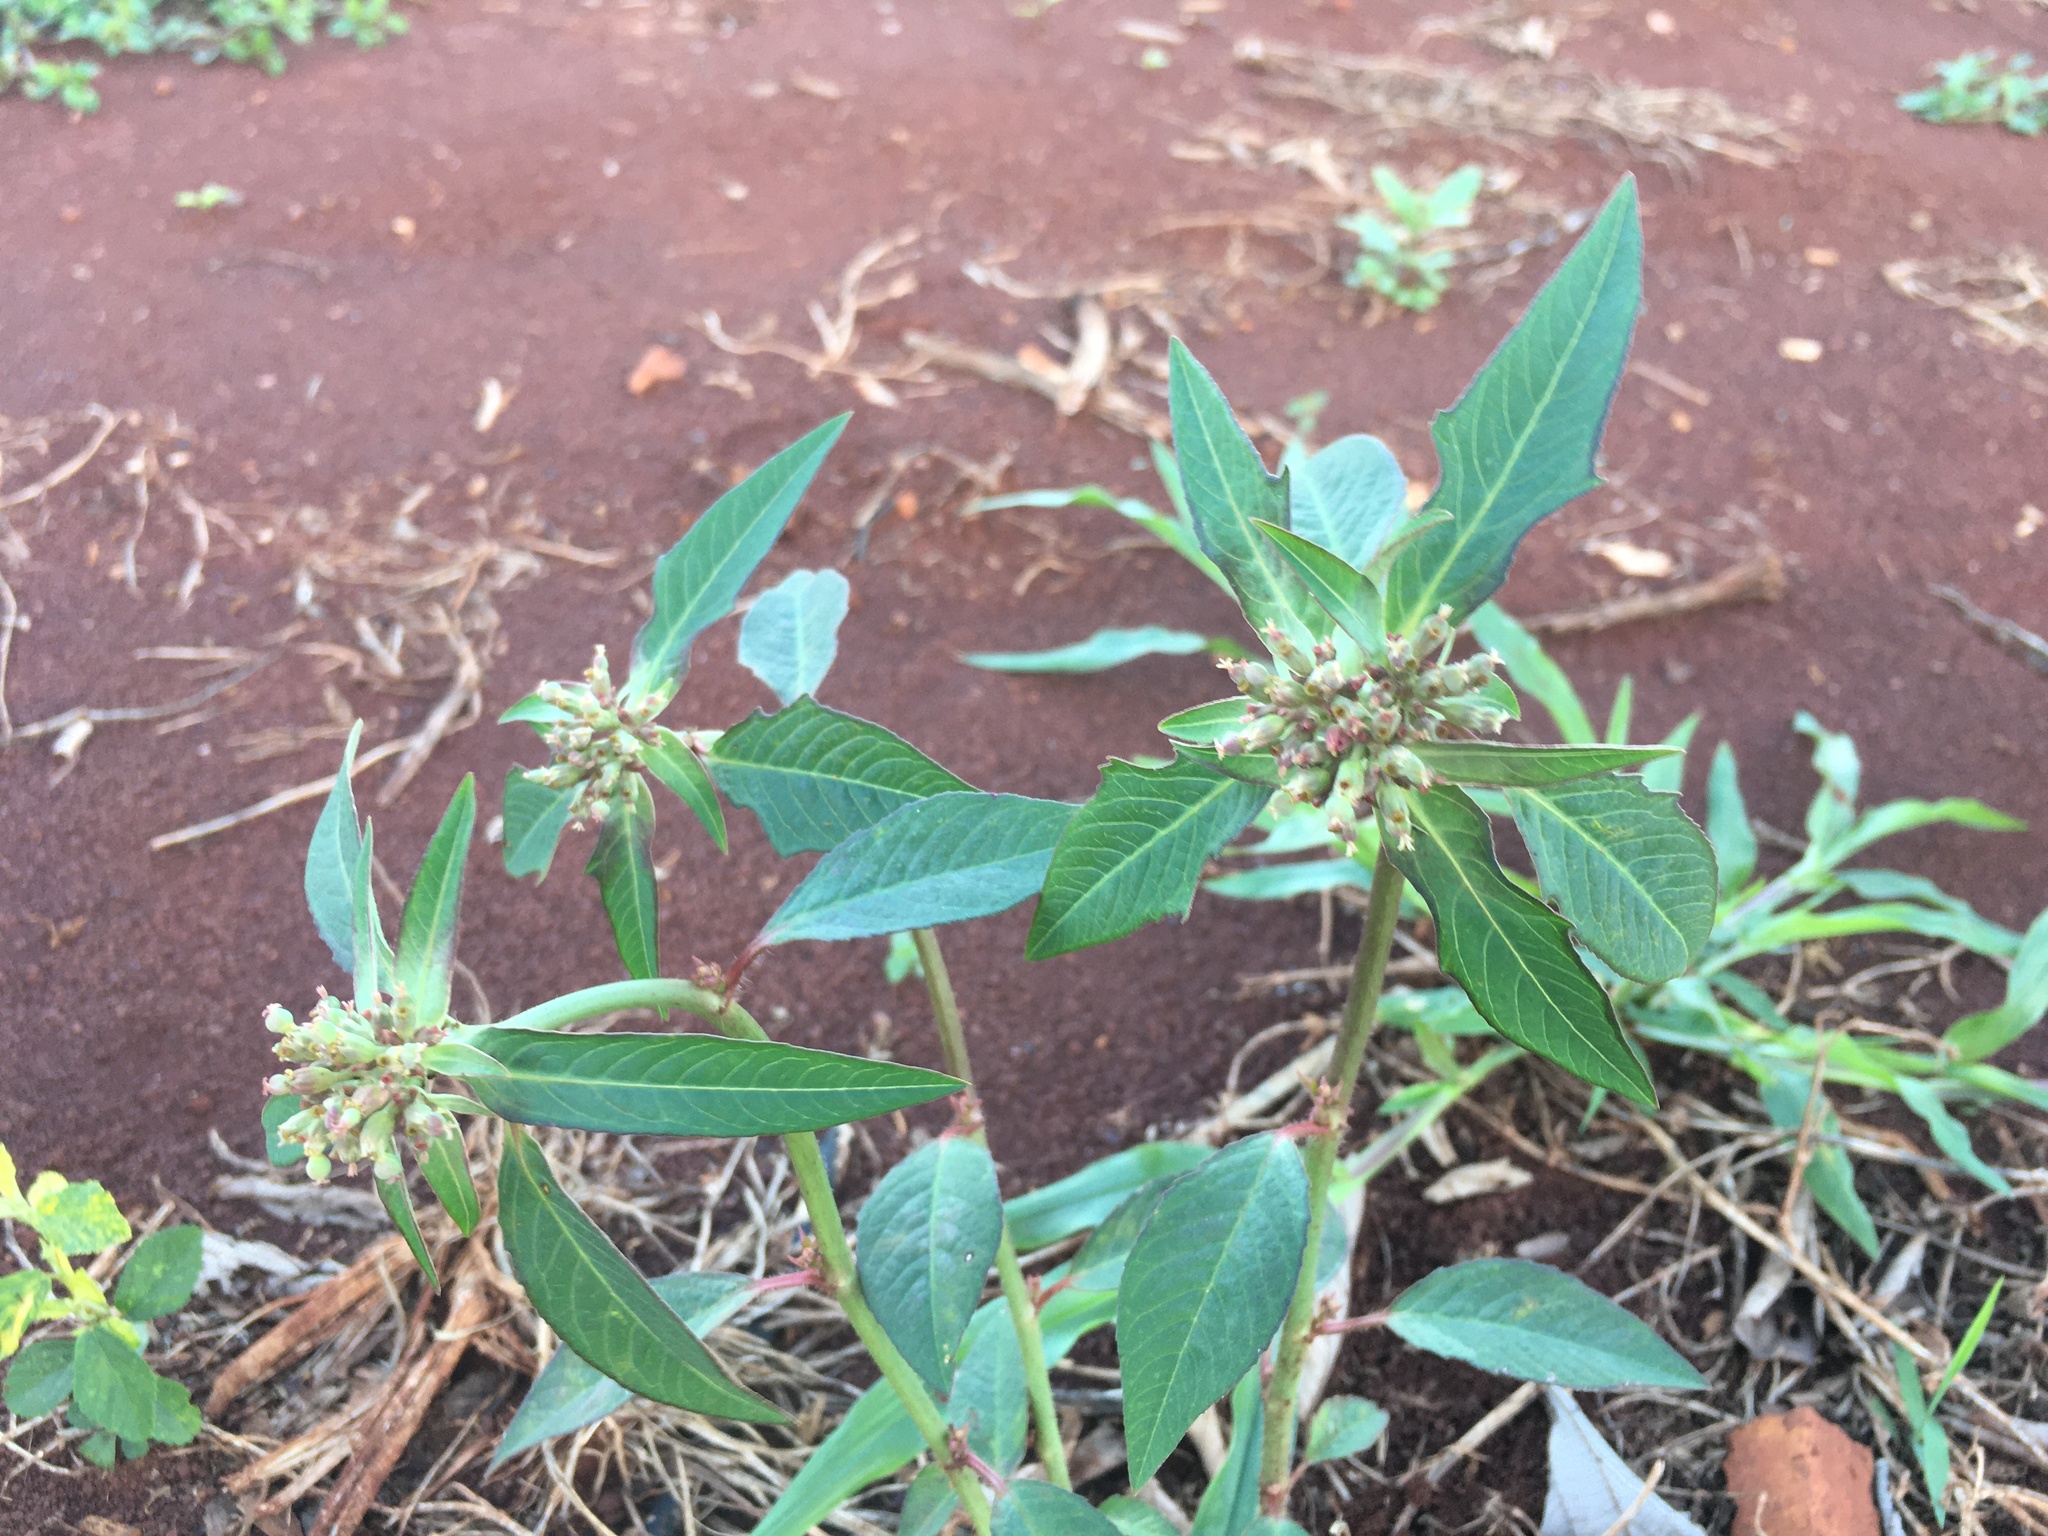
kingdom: Plantae
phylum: Tracheophyta
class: Magnoliopsida
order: Malpighiales
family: Euphorbiaceae
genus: Euphorbia
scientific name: Euphorbia heterophylla
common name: Mexican fireplant
